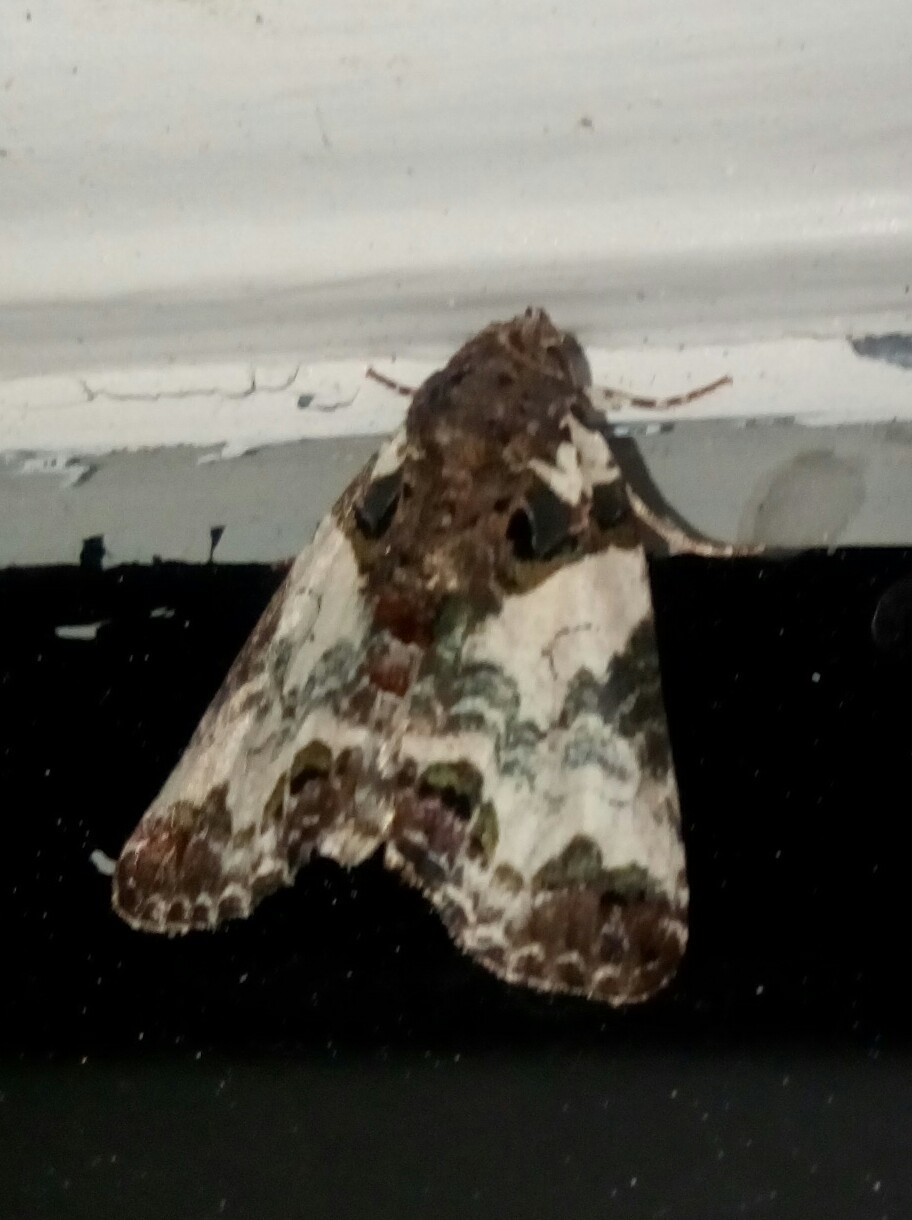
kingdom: Animalia
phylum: Arthropoda
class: Insecta
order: Lepidoptera
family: Noctuidae
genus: Cerma
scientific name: Cerma cerintha
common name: Tufted bird-dropping moth
